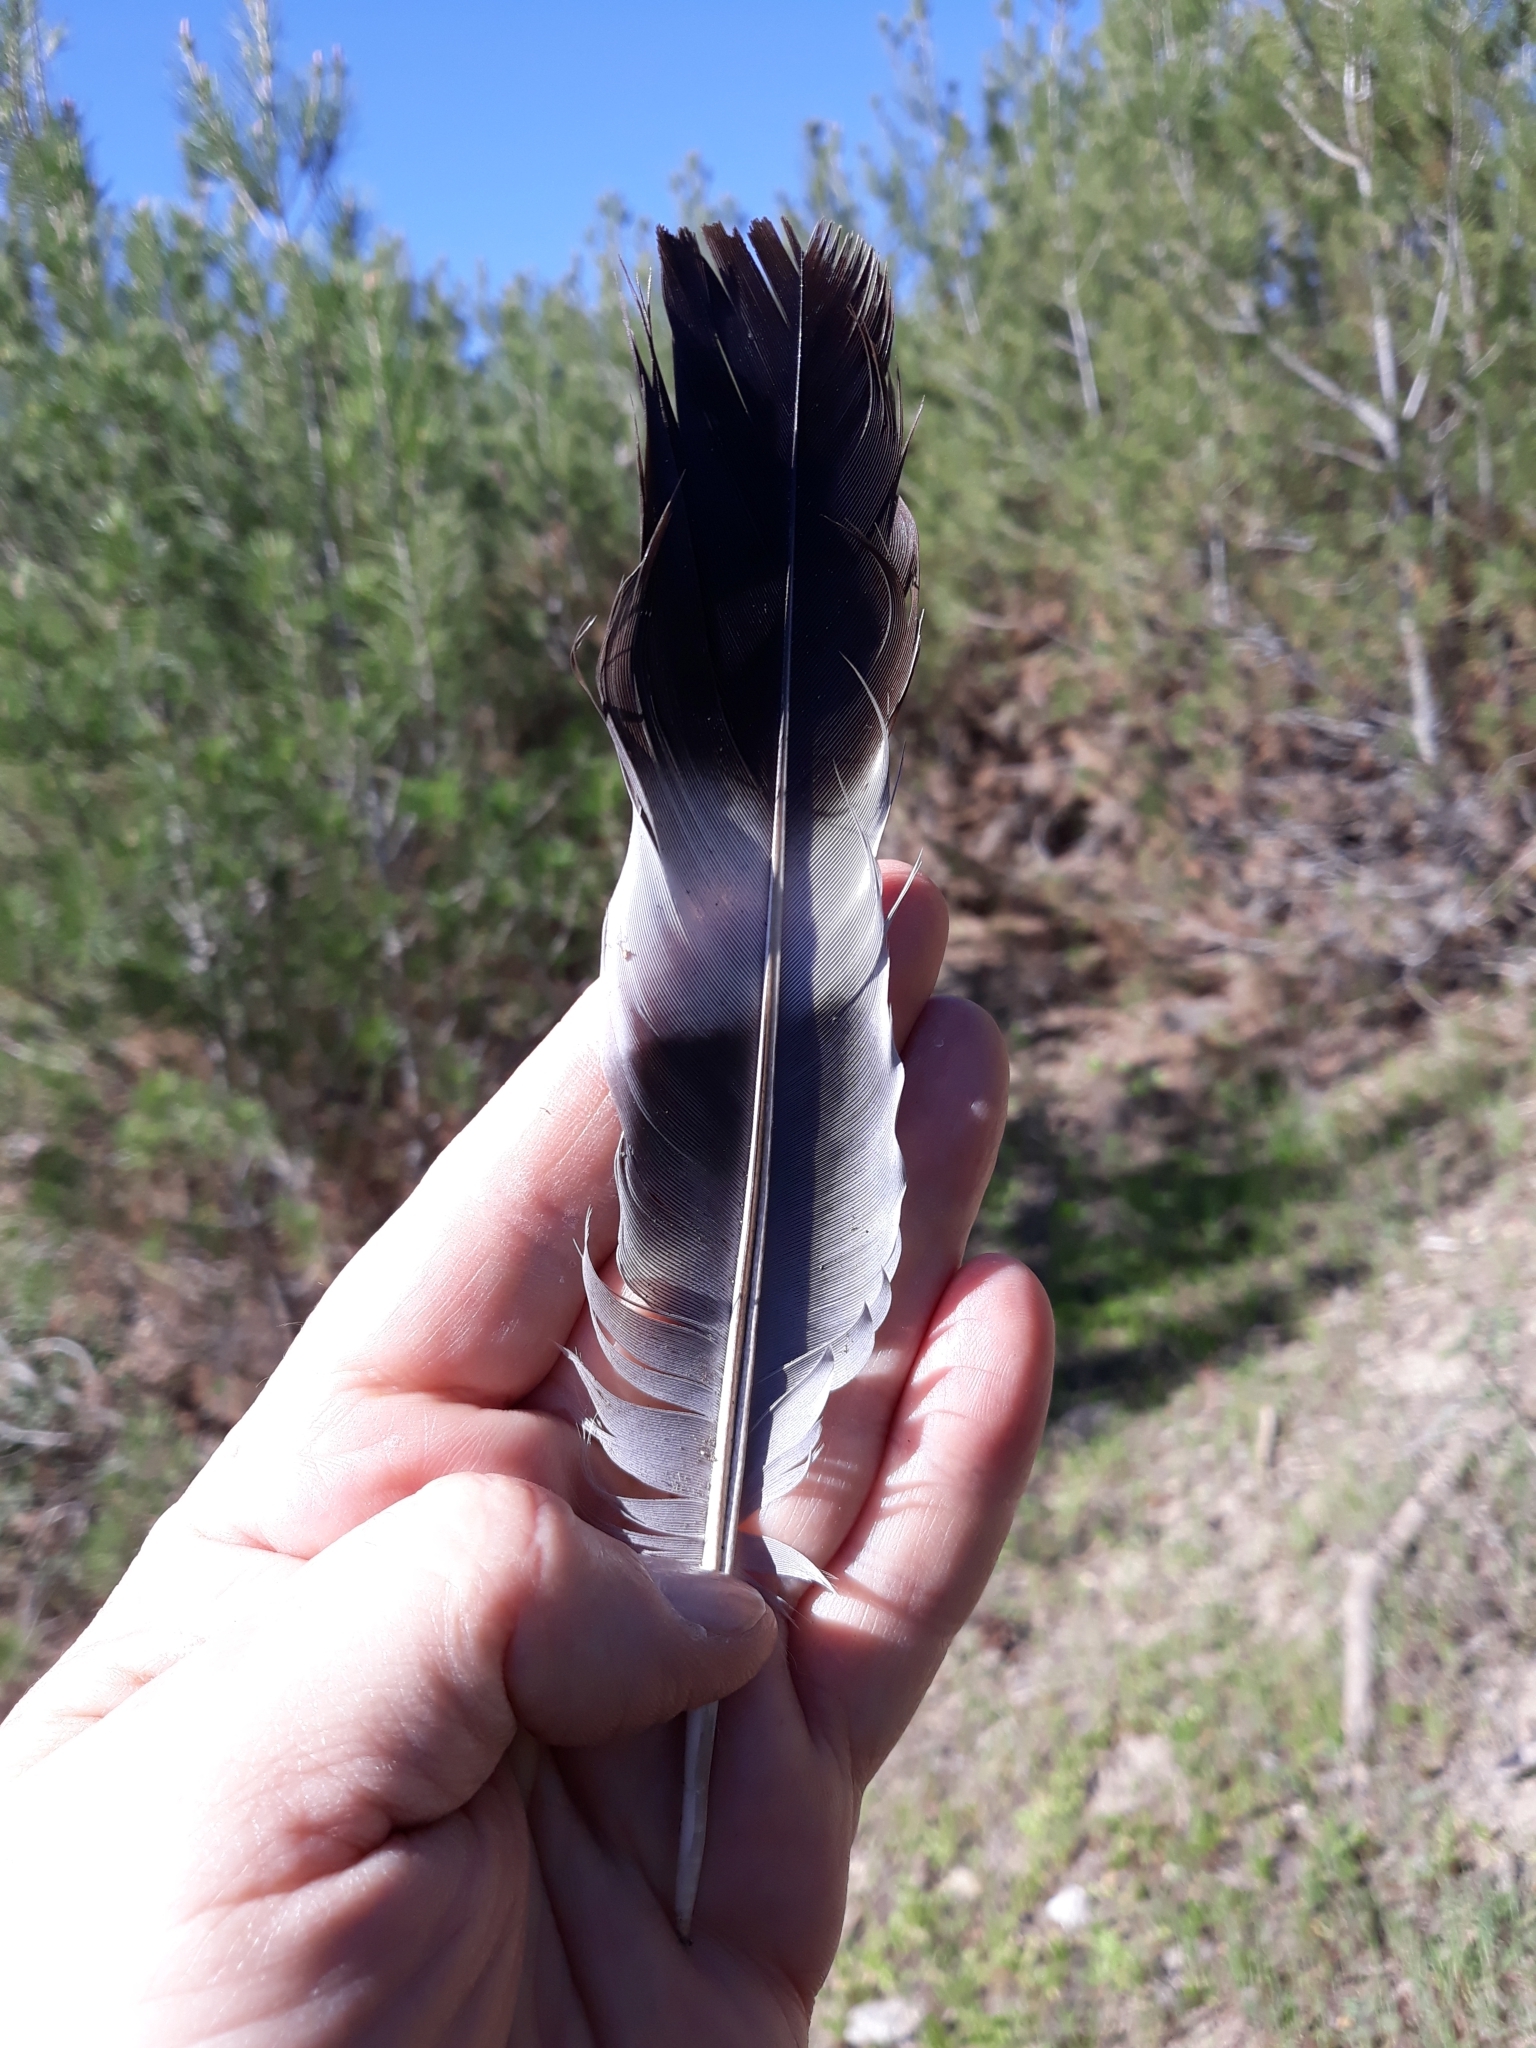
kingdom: Animalia
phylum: Chordata
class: Aves
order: Columbiformes
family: Columbidae
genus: Columba
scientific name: Columba palumbus
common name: Common wood pigeon
